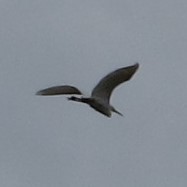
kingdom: Animalia
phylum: Chordata
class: Aves
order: Pelecaniformes
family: Ardeidae
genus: Ardea
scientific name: Ardea alba
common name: Great egret
